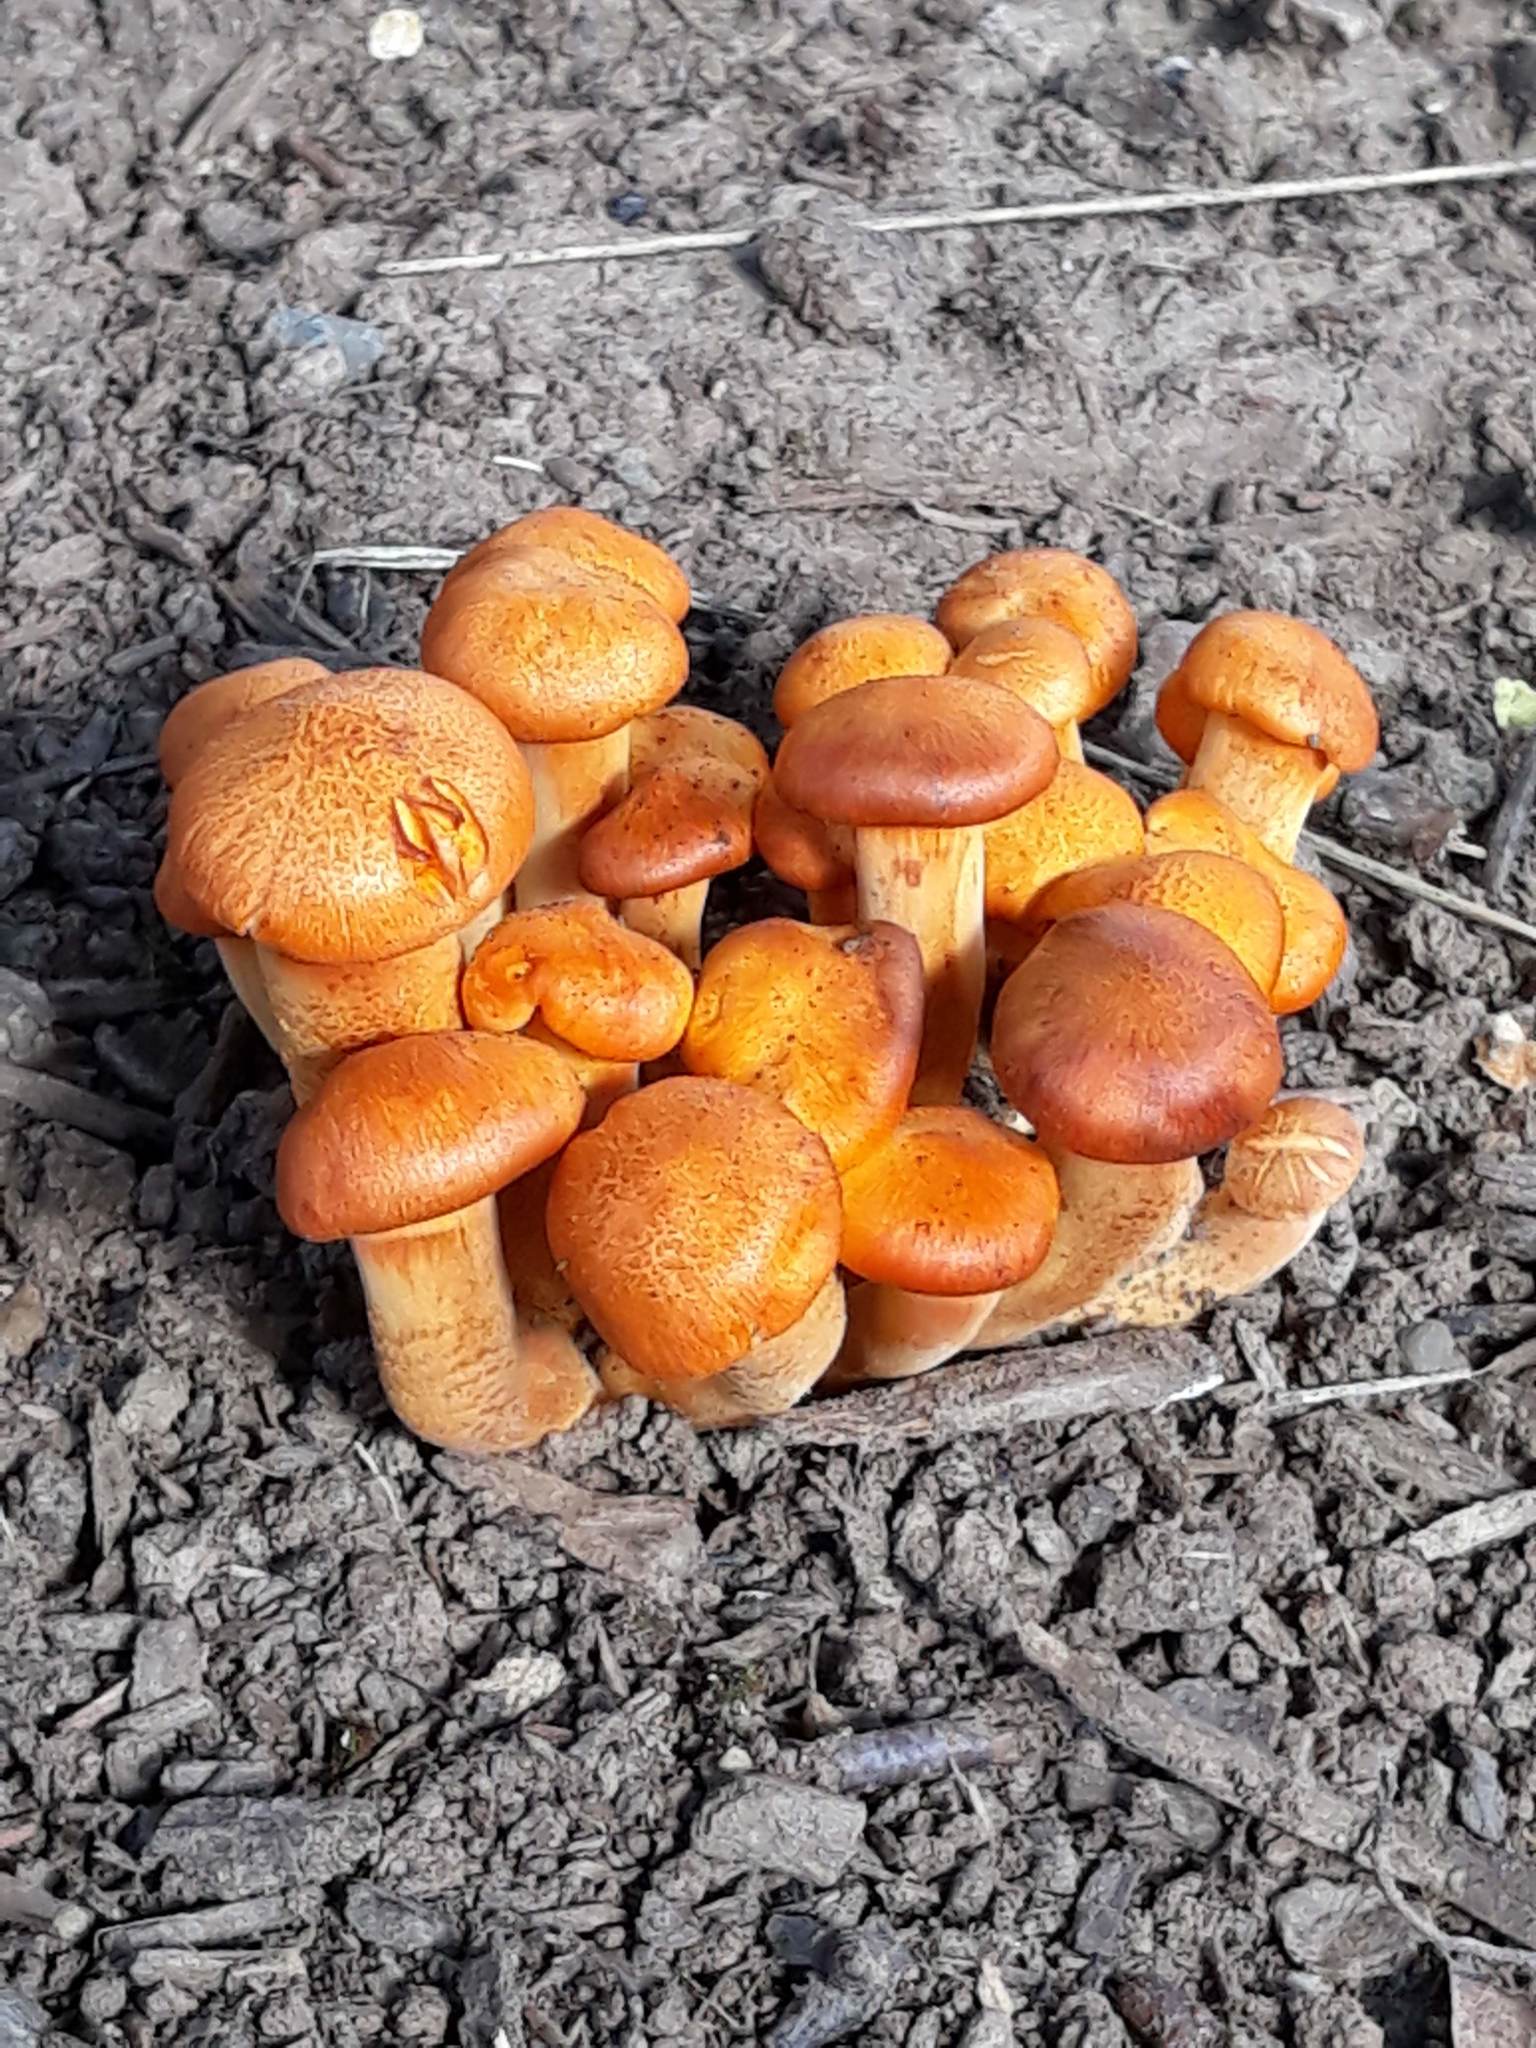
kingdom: Fungi
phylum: Basidiomycota
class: Agaricomycetes
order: Agaricales
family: Omphalotaceae
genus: Omphalotus
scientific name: Omphalotus illudens
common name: Jack o lantern
